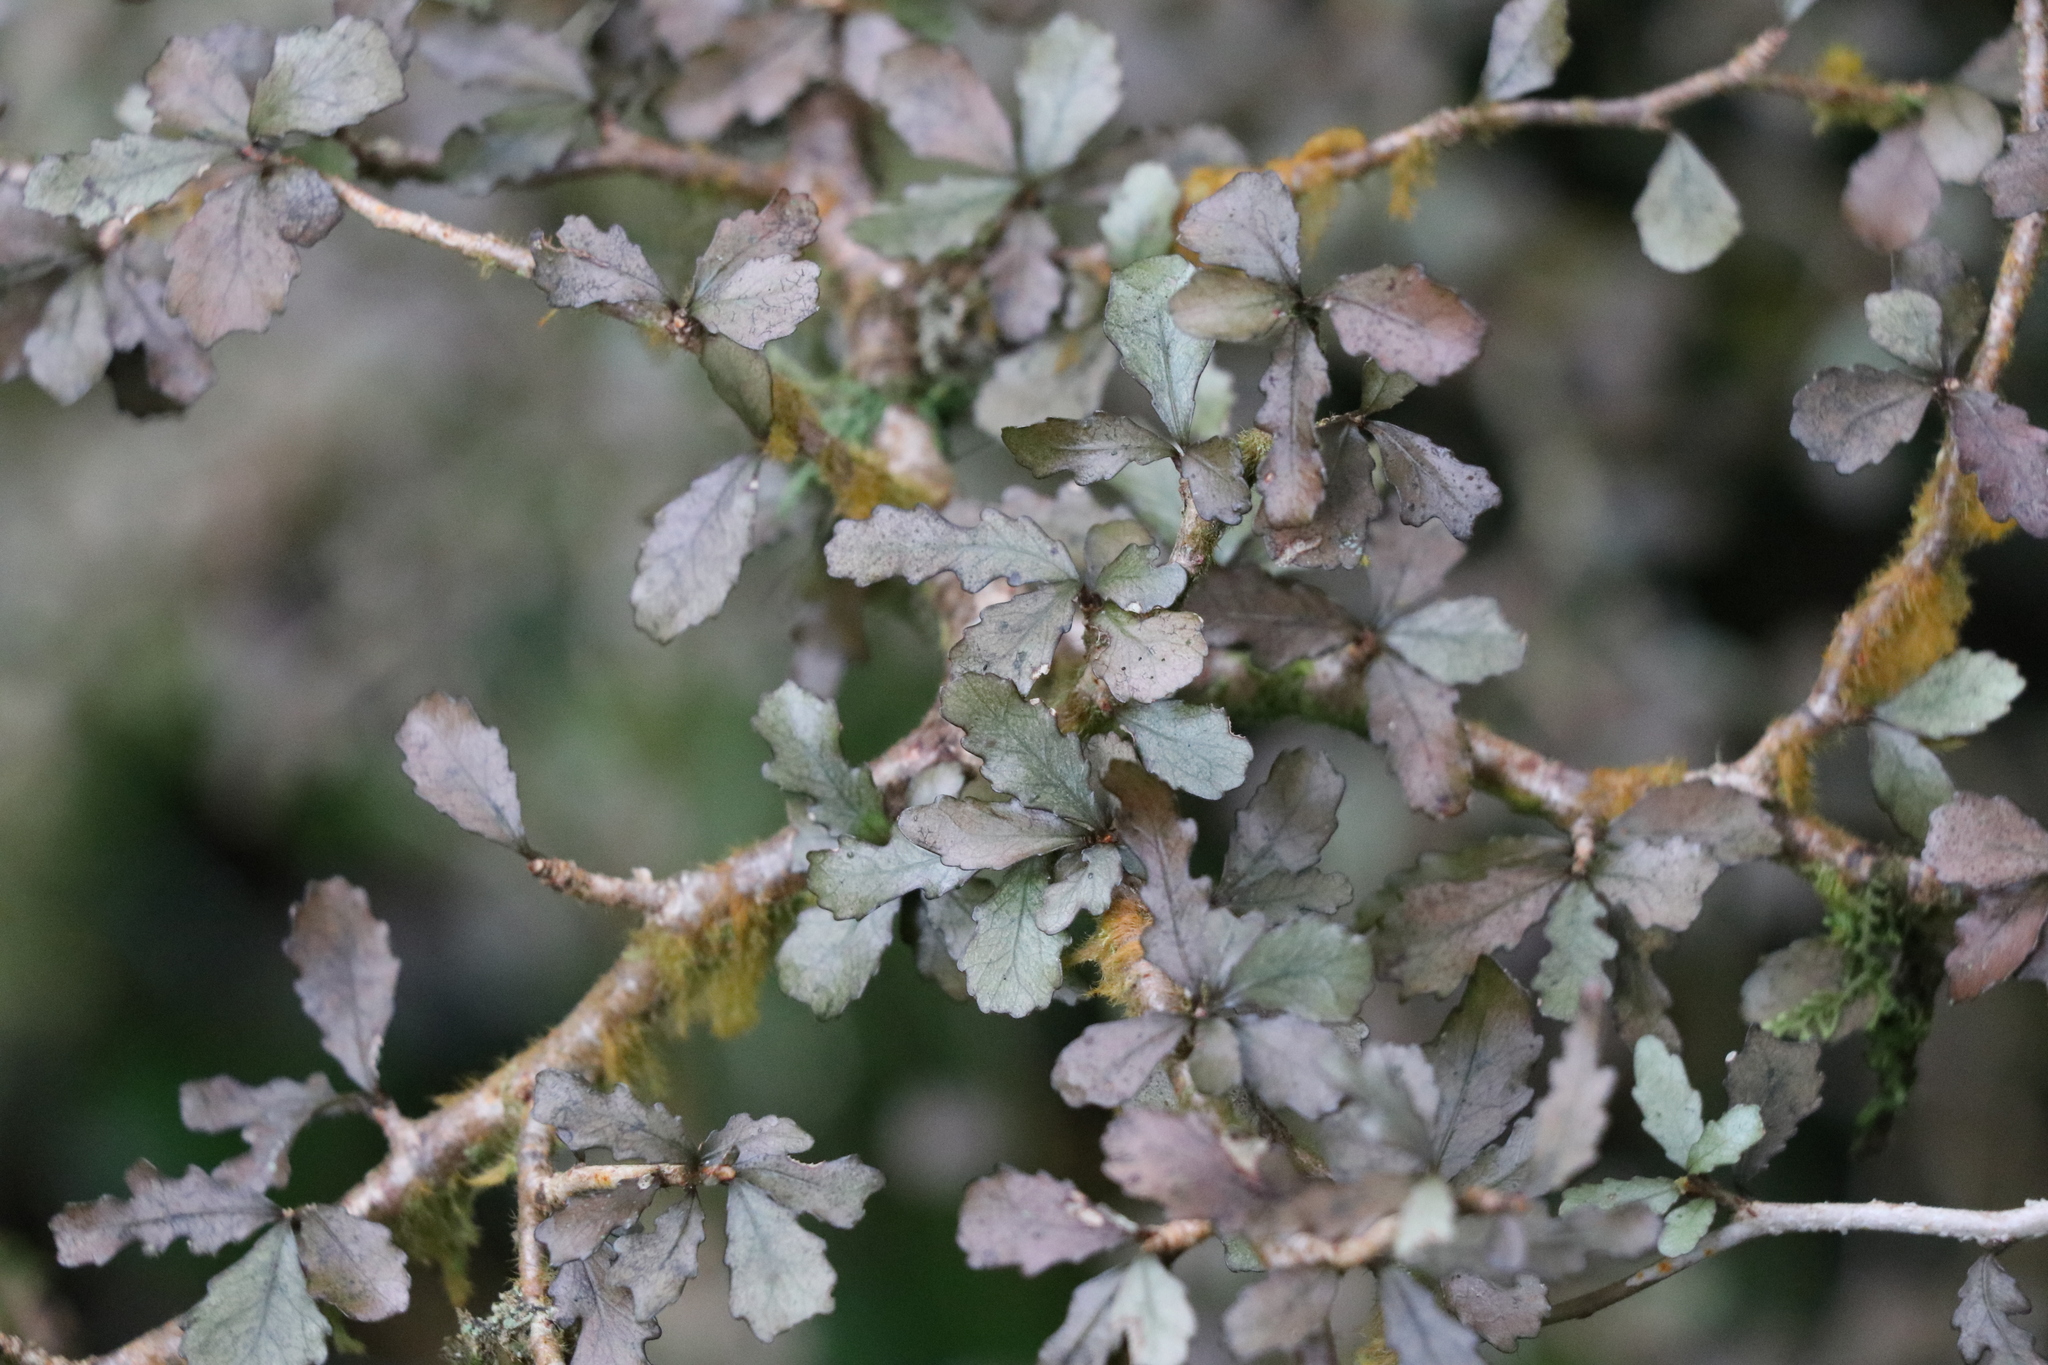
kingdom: Plantae
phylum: Tracheophyta
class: Magnoliopsida
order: Oxalidales
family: Elaeocarpaceae
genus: Elaeocarpus
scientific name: Elaeocarpus hookerianus
